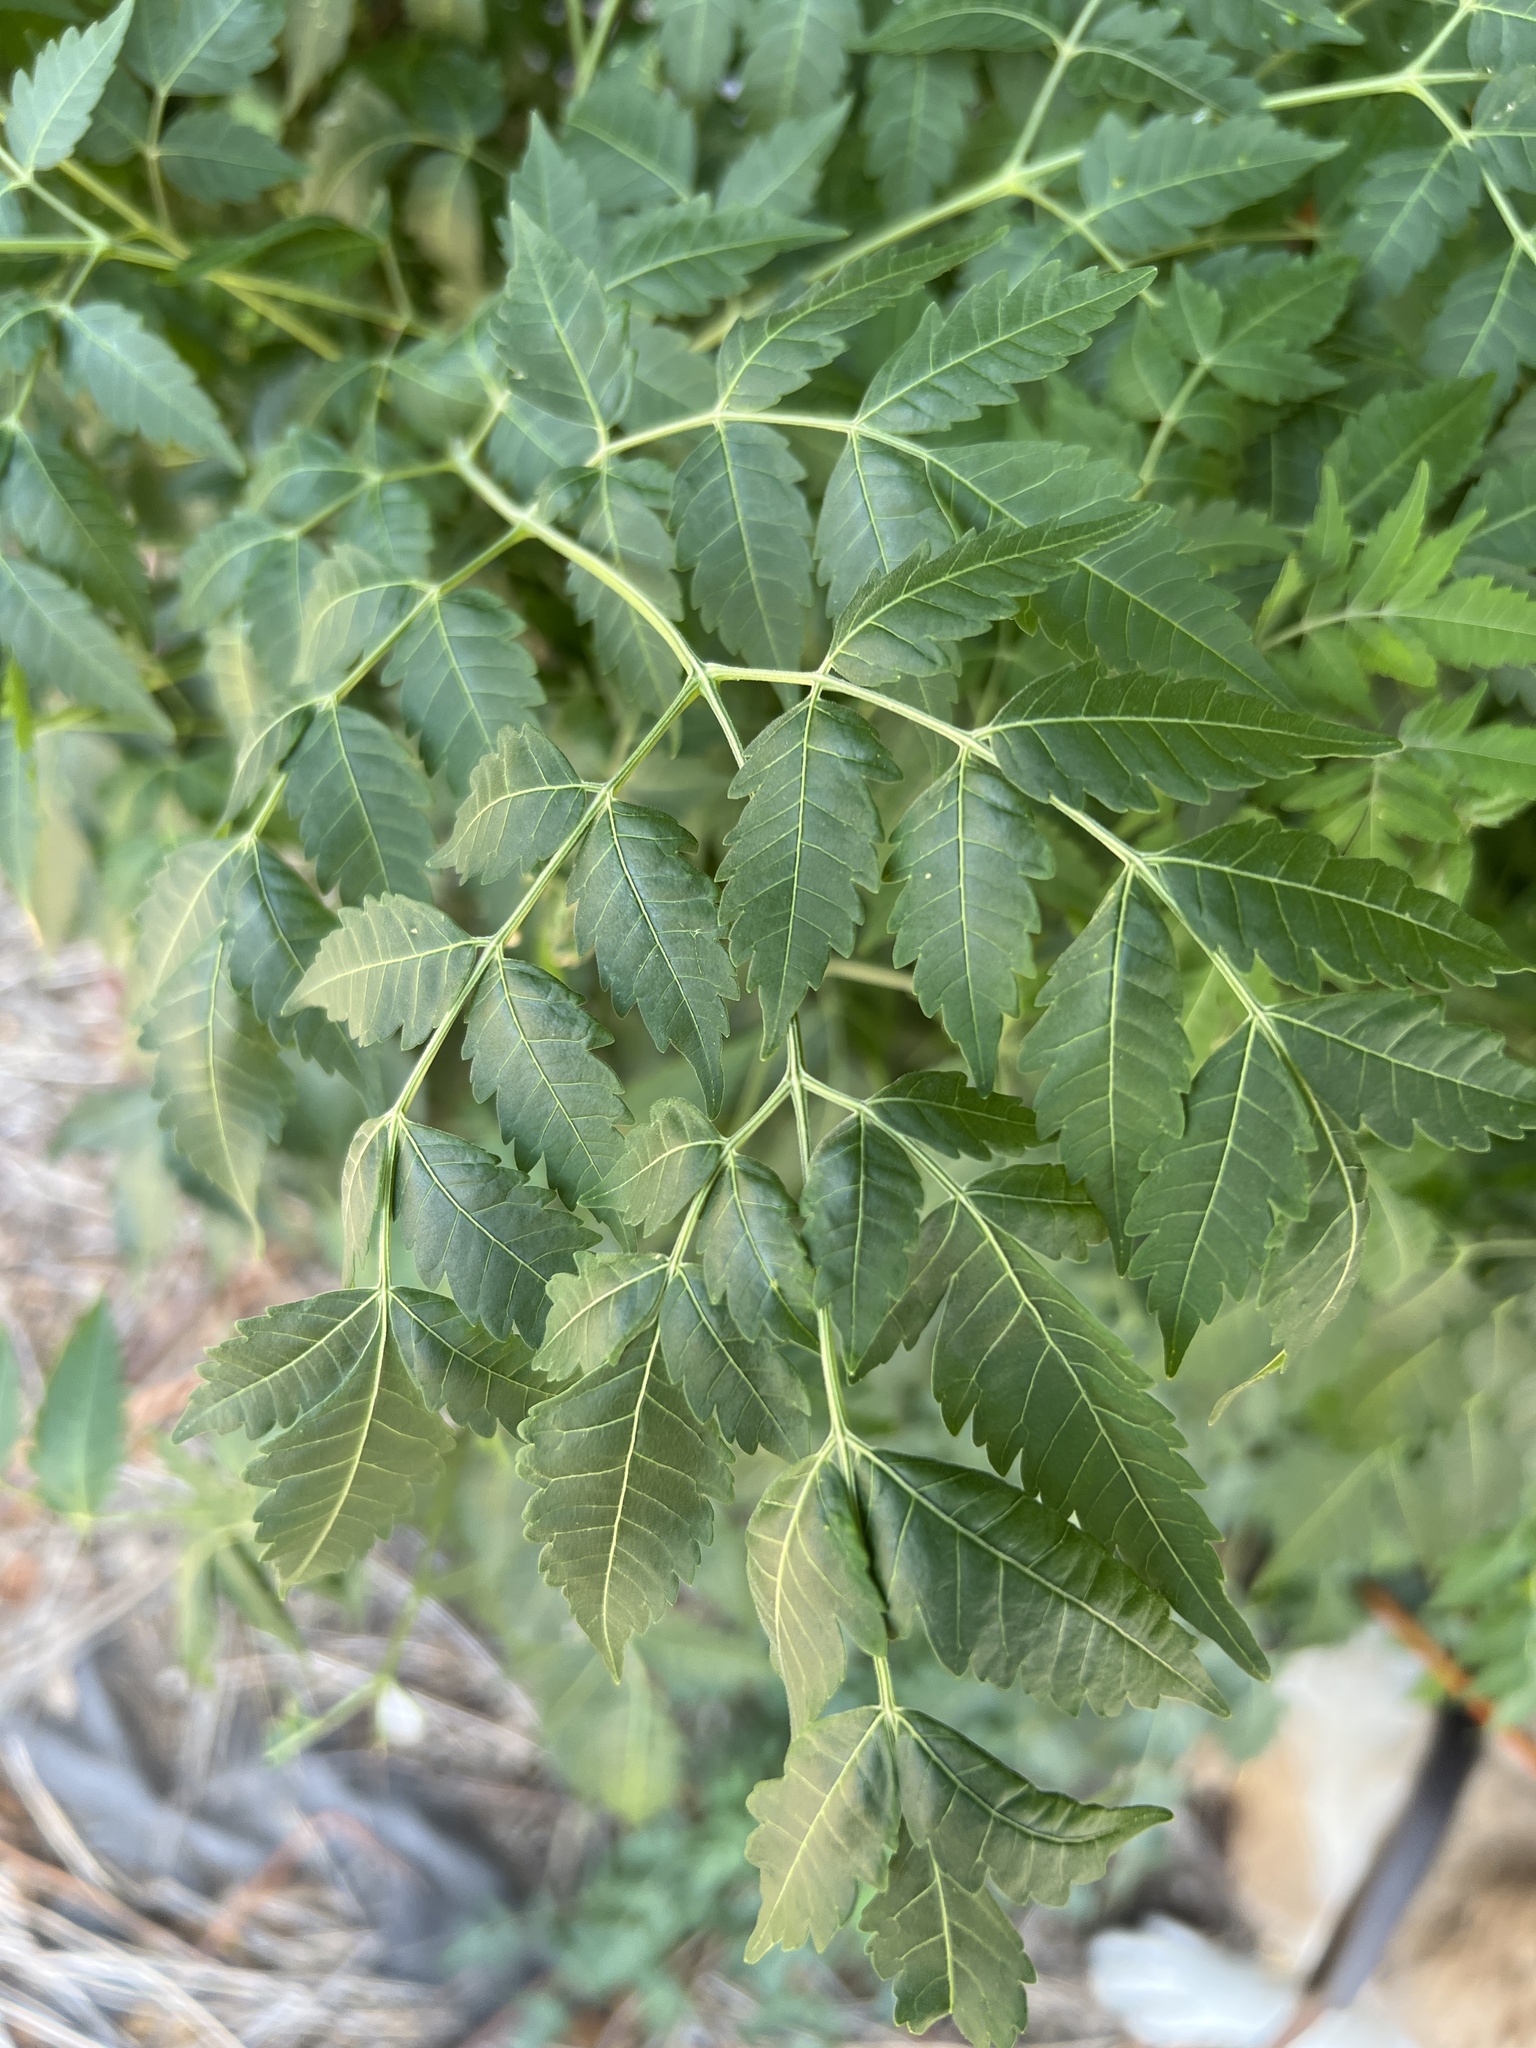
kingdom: Plantae
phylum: Tracheophyta
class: Magnoliopsida
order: Sapindales
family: Meliaceae
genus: Melia
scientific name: Melia azedarach
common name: Chinaberrytree
